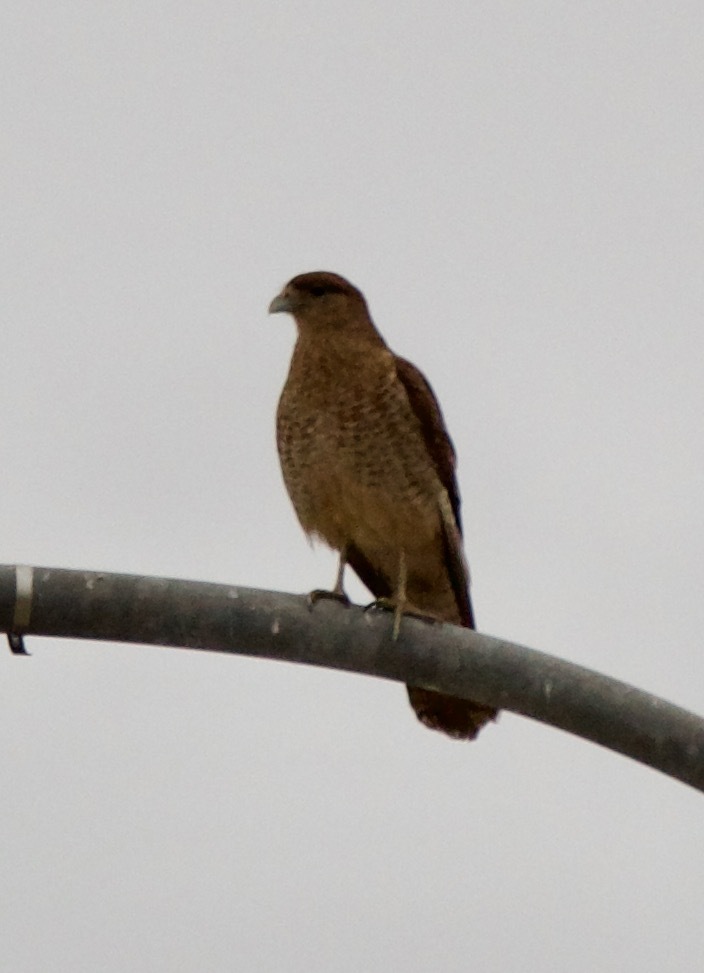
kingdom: Animalia
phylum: Chordata
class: Aves
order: Falconiformes
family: Falconidae
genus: Daptrius
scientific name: Daptrius
